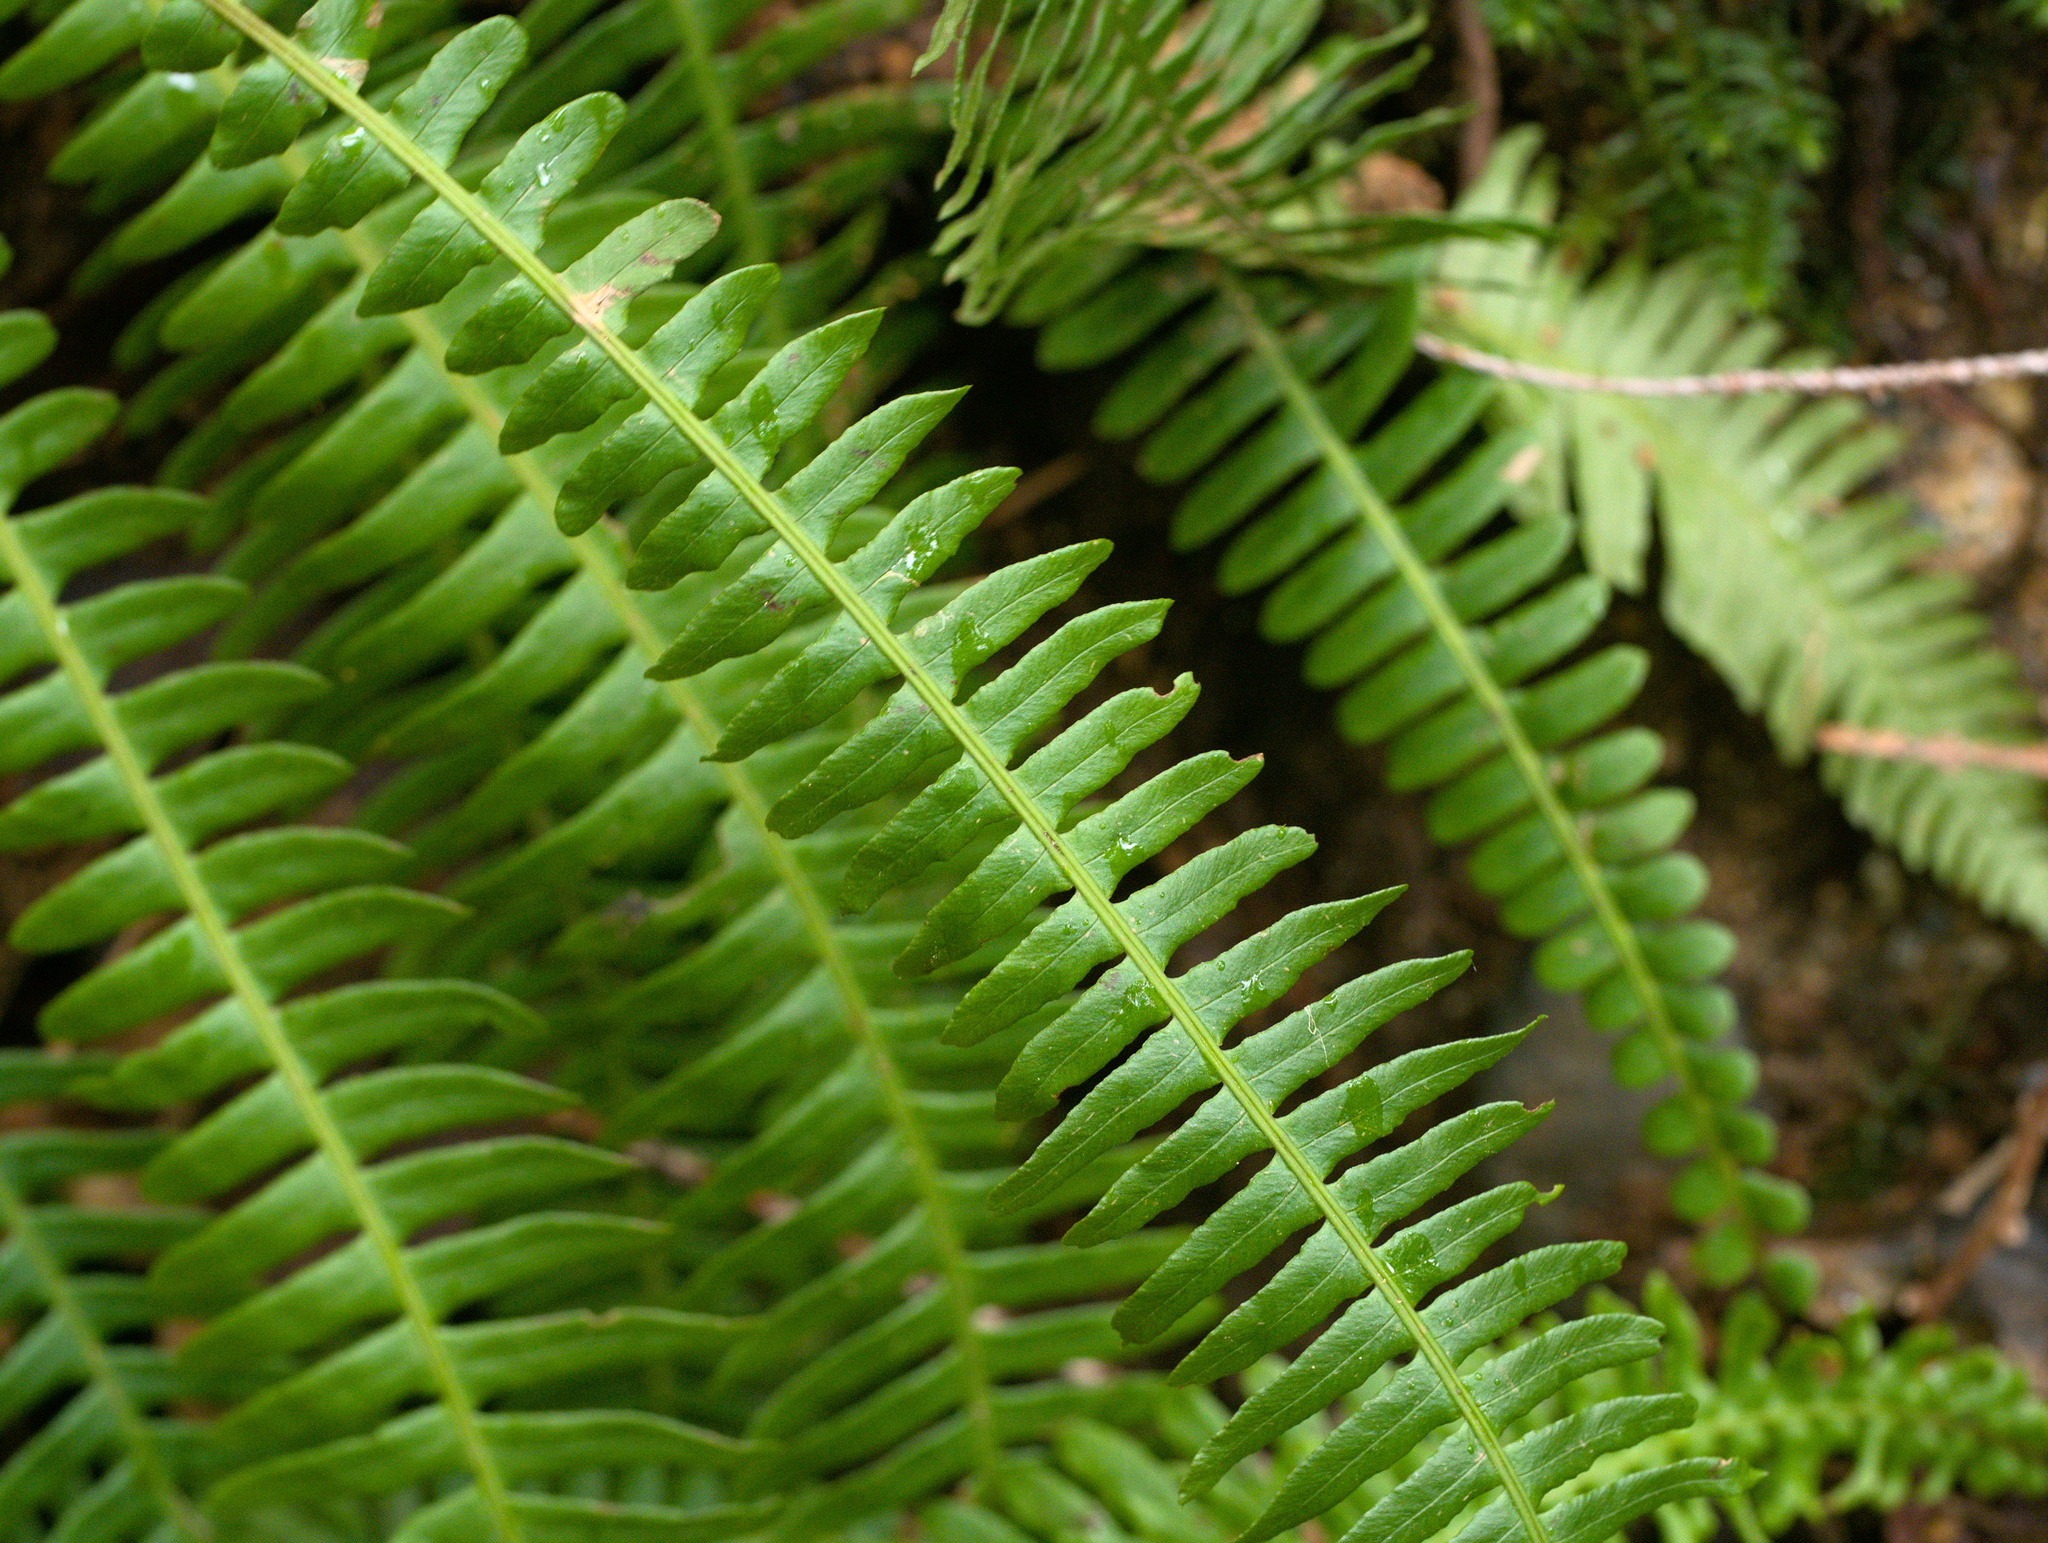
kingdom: Plantae
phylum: Tracheophyta
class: Polypodiopsida
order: Polypodiales
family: Blechnaceae
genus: Struthiopteris
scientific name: Struthiopteris spicant
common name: Deer fern
